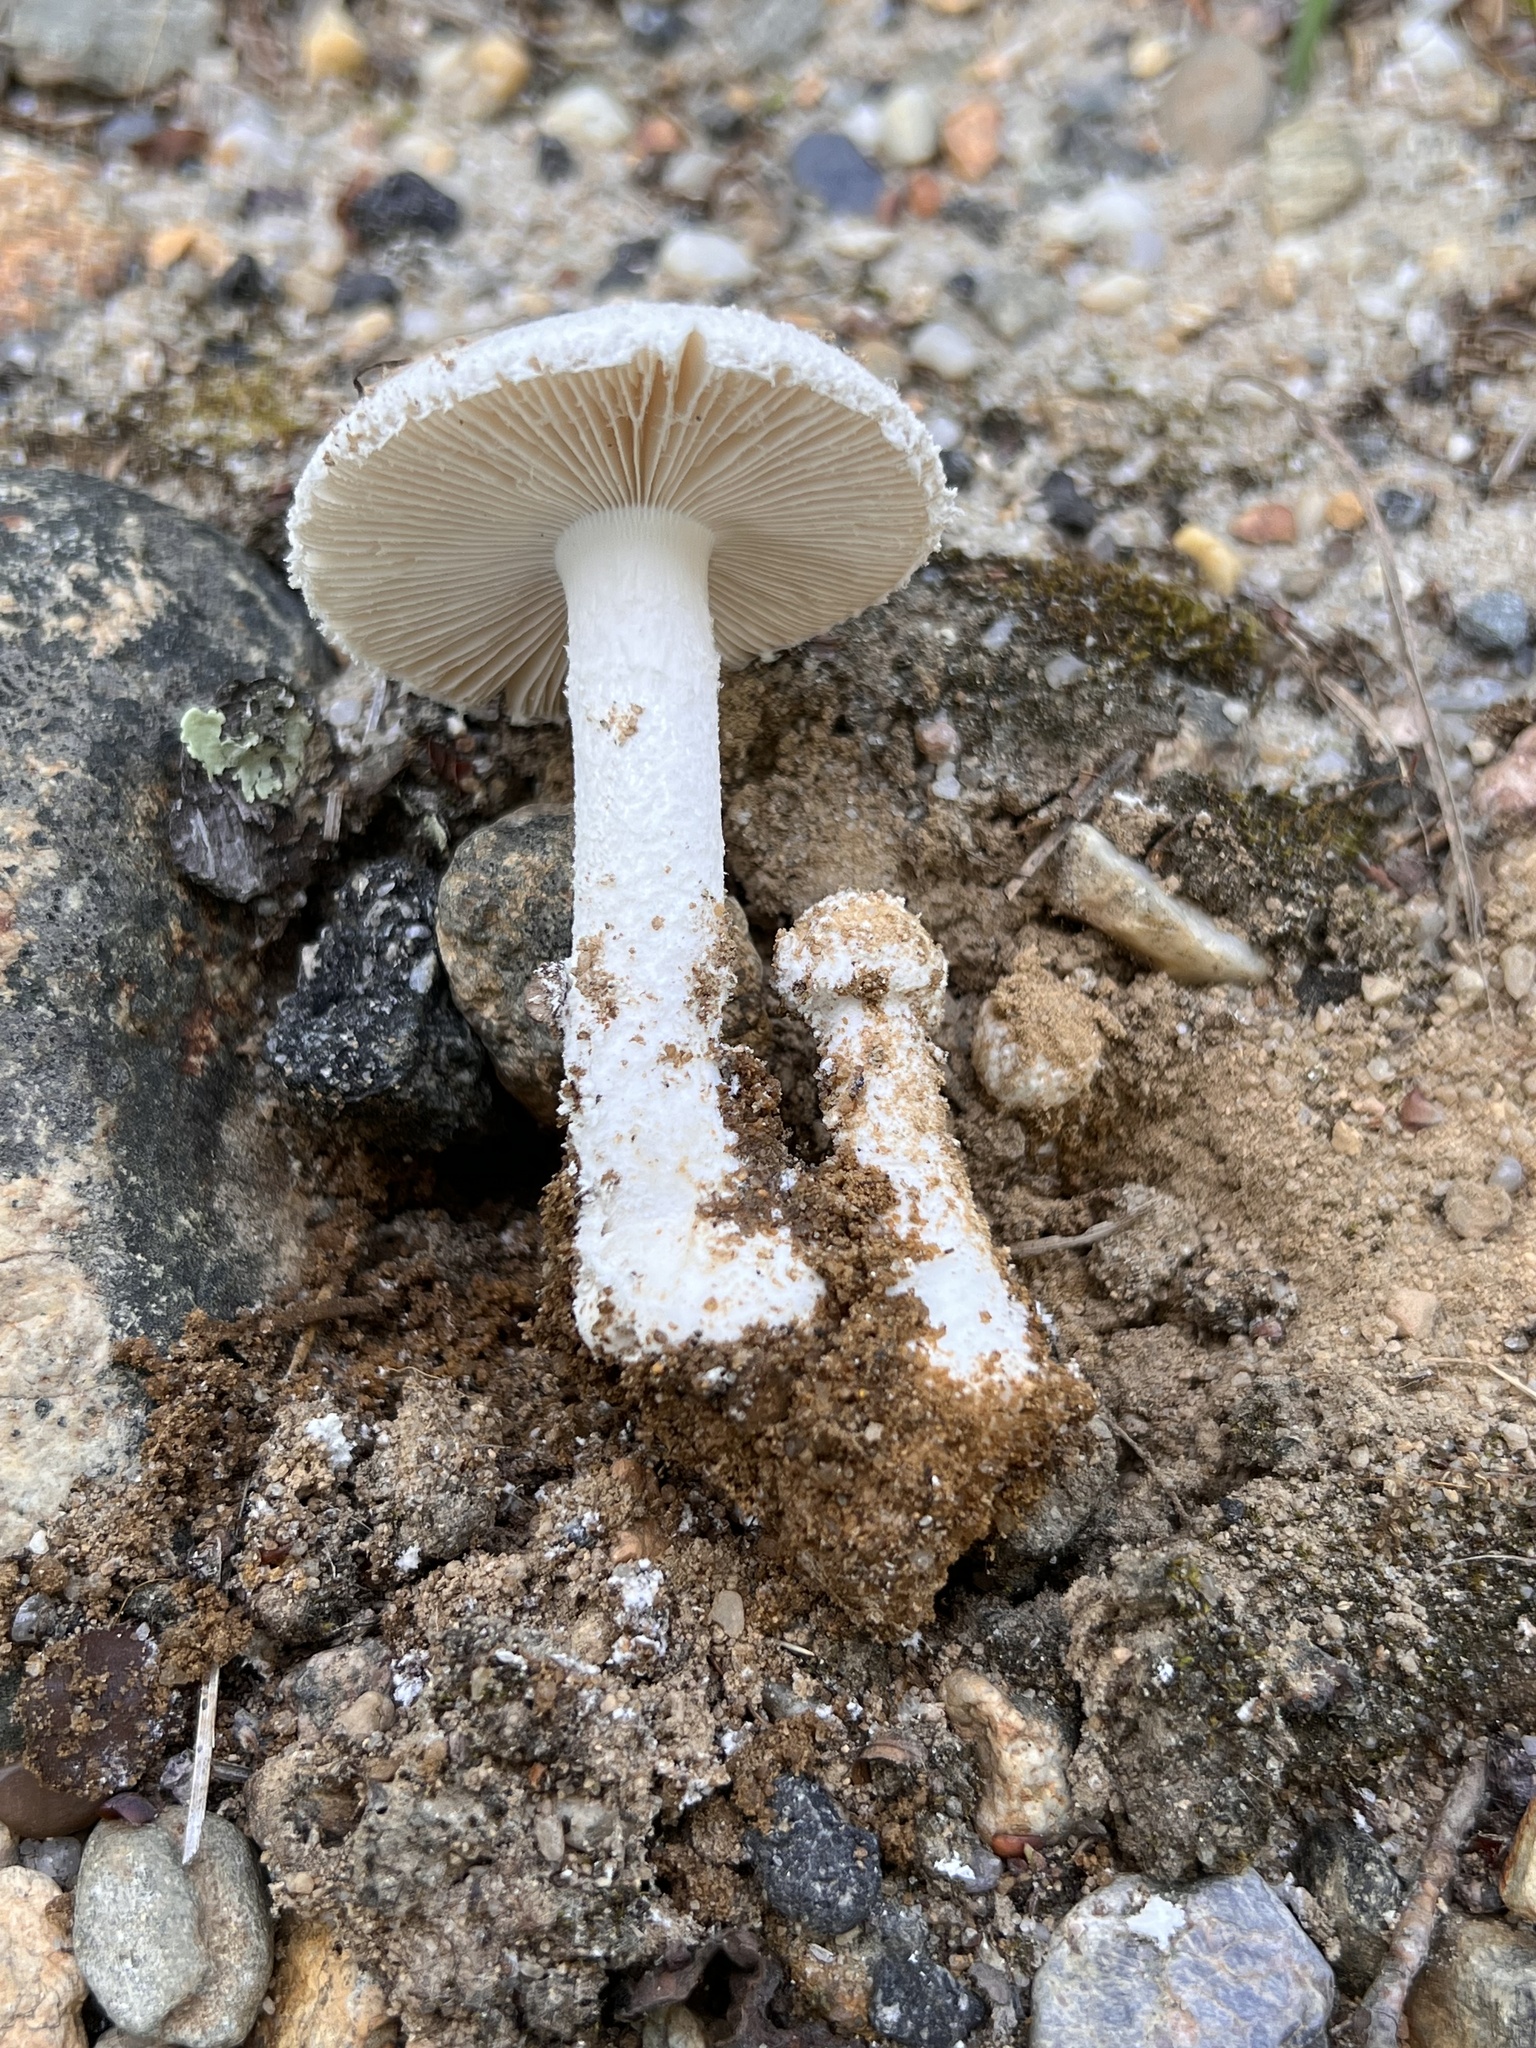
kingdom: Fungi
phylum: Basidiomycota
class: Agaricomycetes
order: Agaricales
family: Amanitaceae
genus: Amanita
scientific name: Amanita longipes
